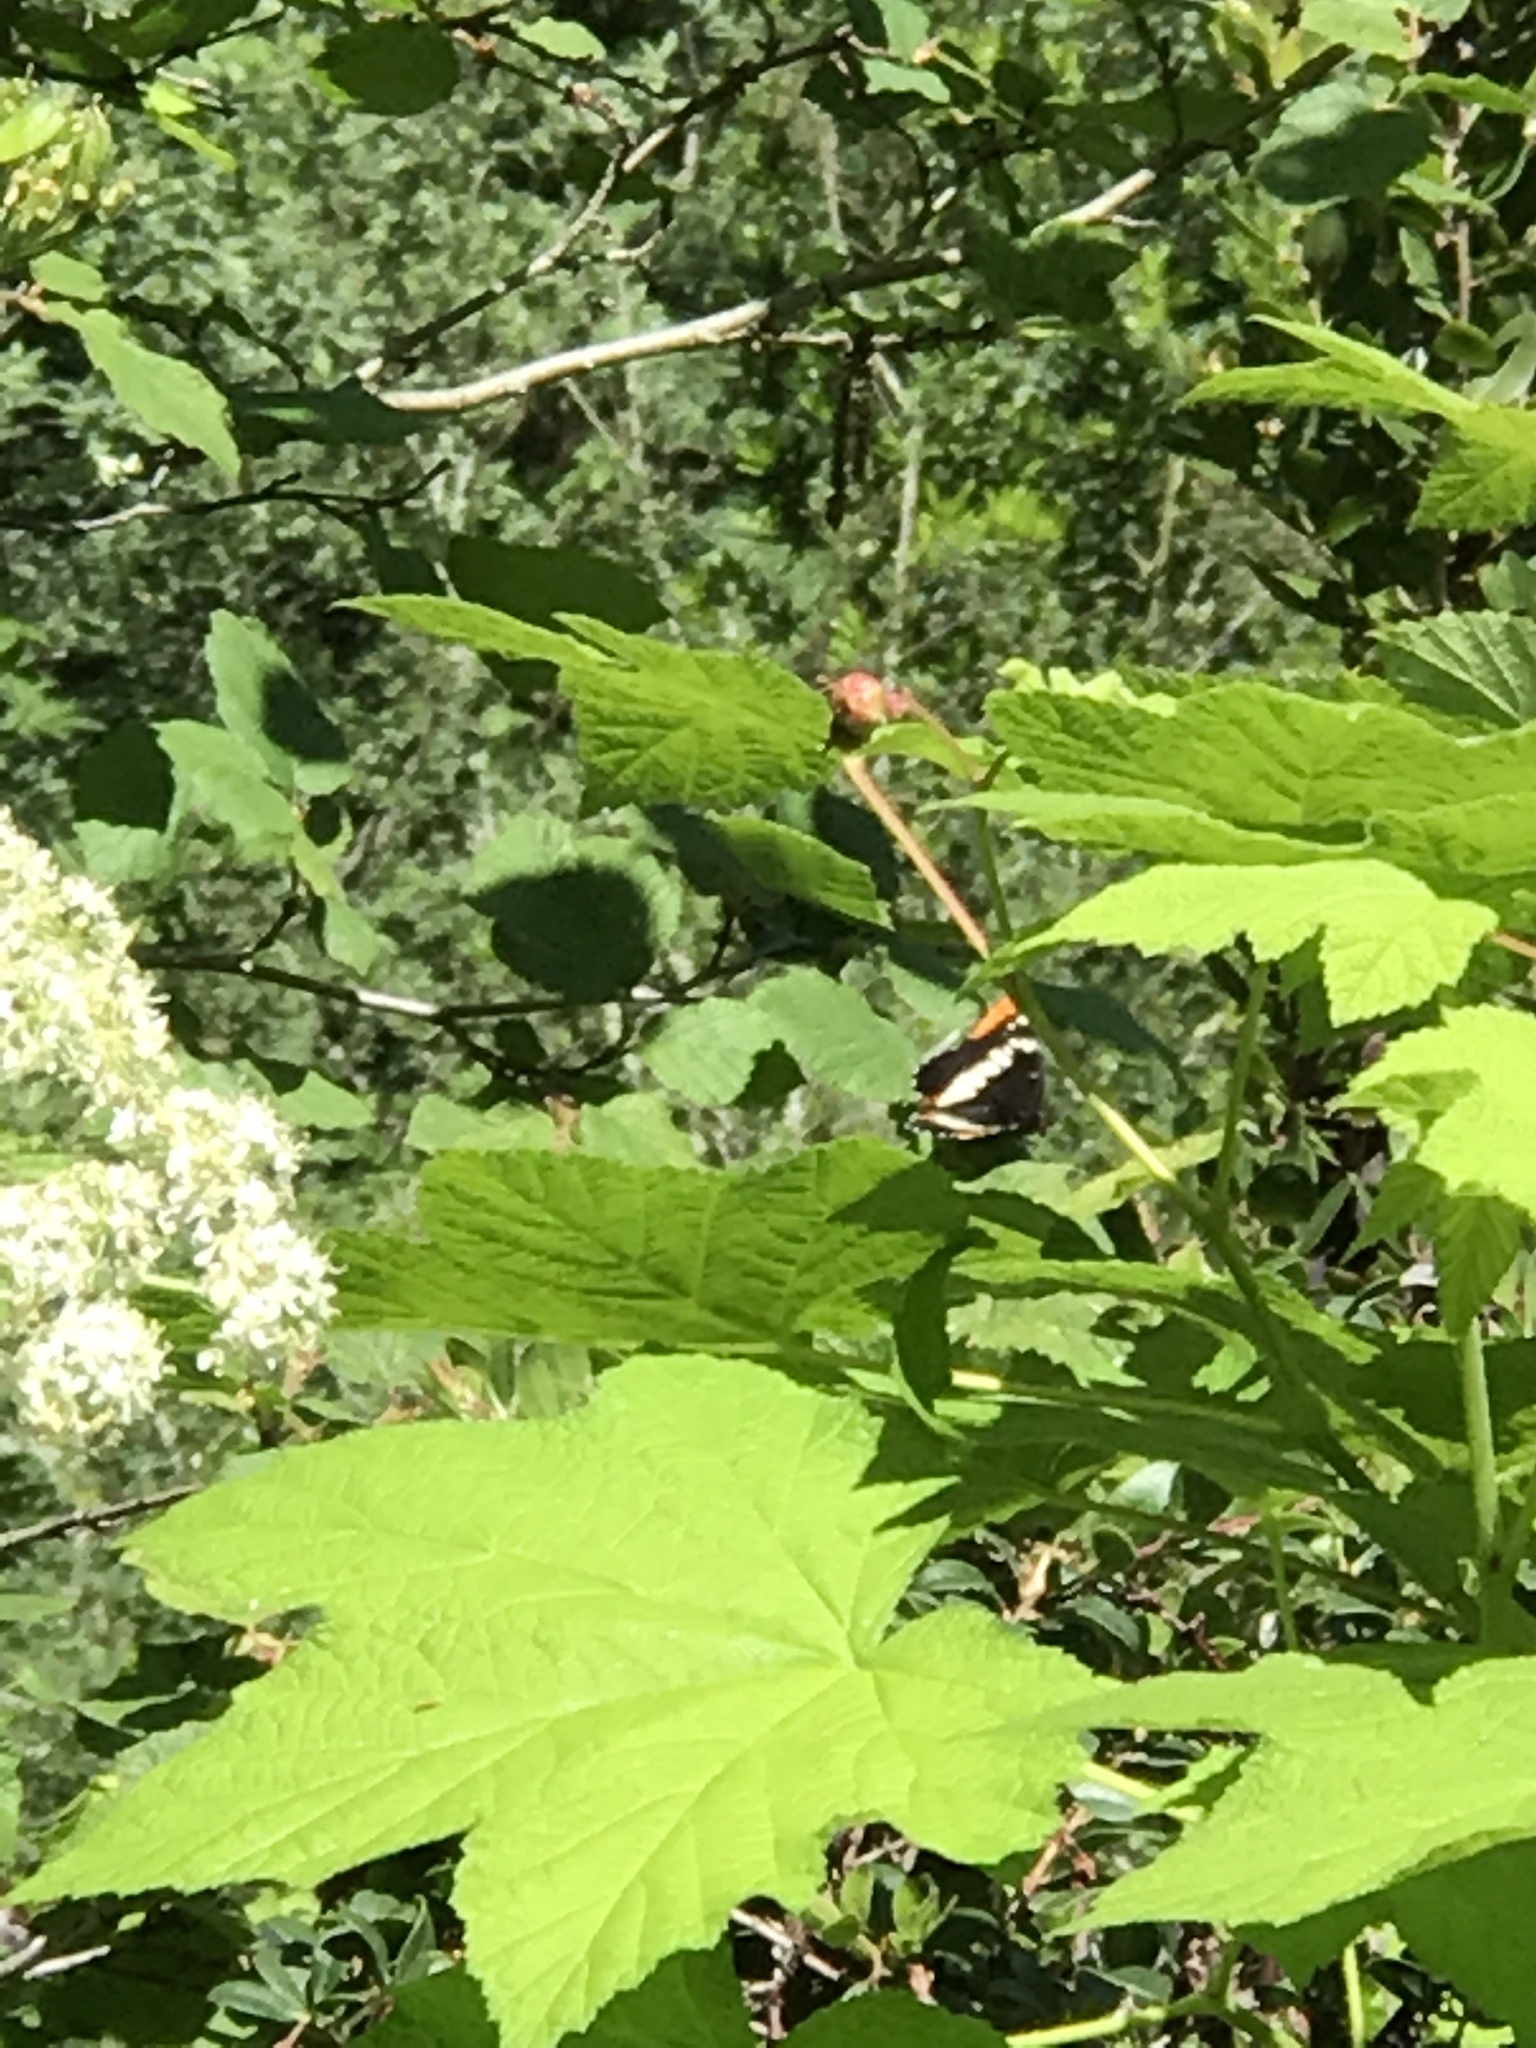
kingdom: Animalia
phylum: Arthropoda
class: Insecta
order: Lepidoptera
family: Nymphalidae
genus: Limenitis
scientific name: Limenitis lorquini
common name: Lorquin's admiral
